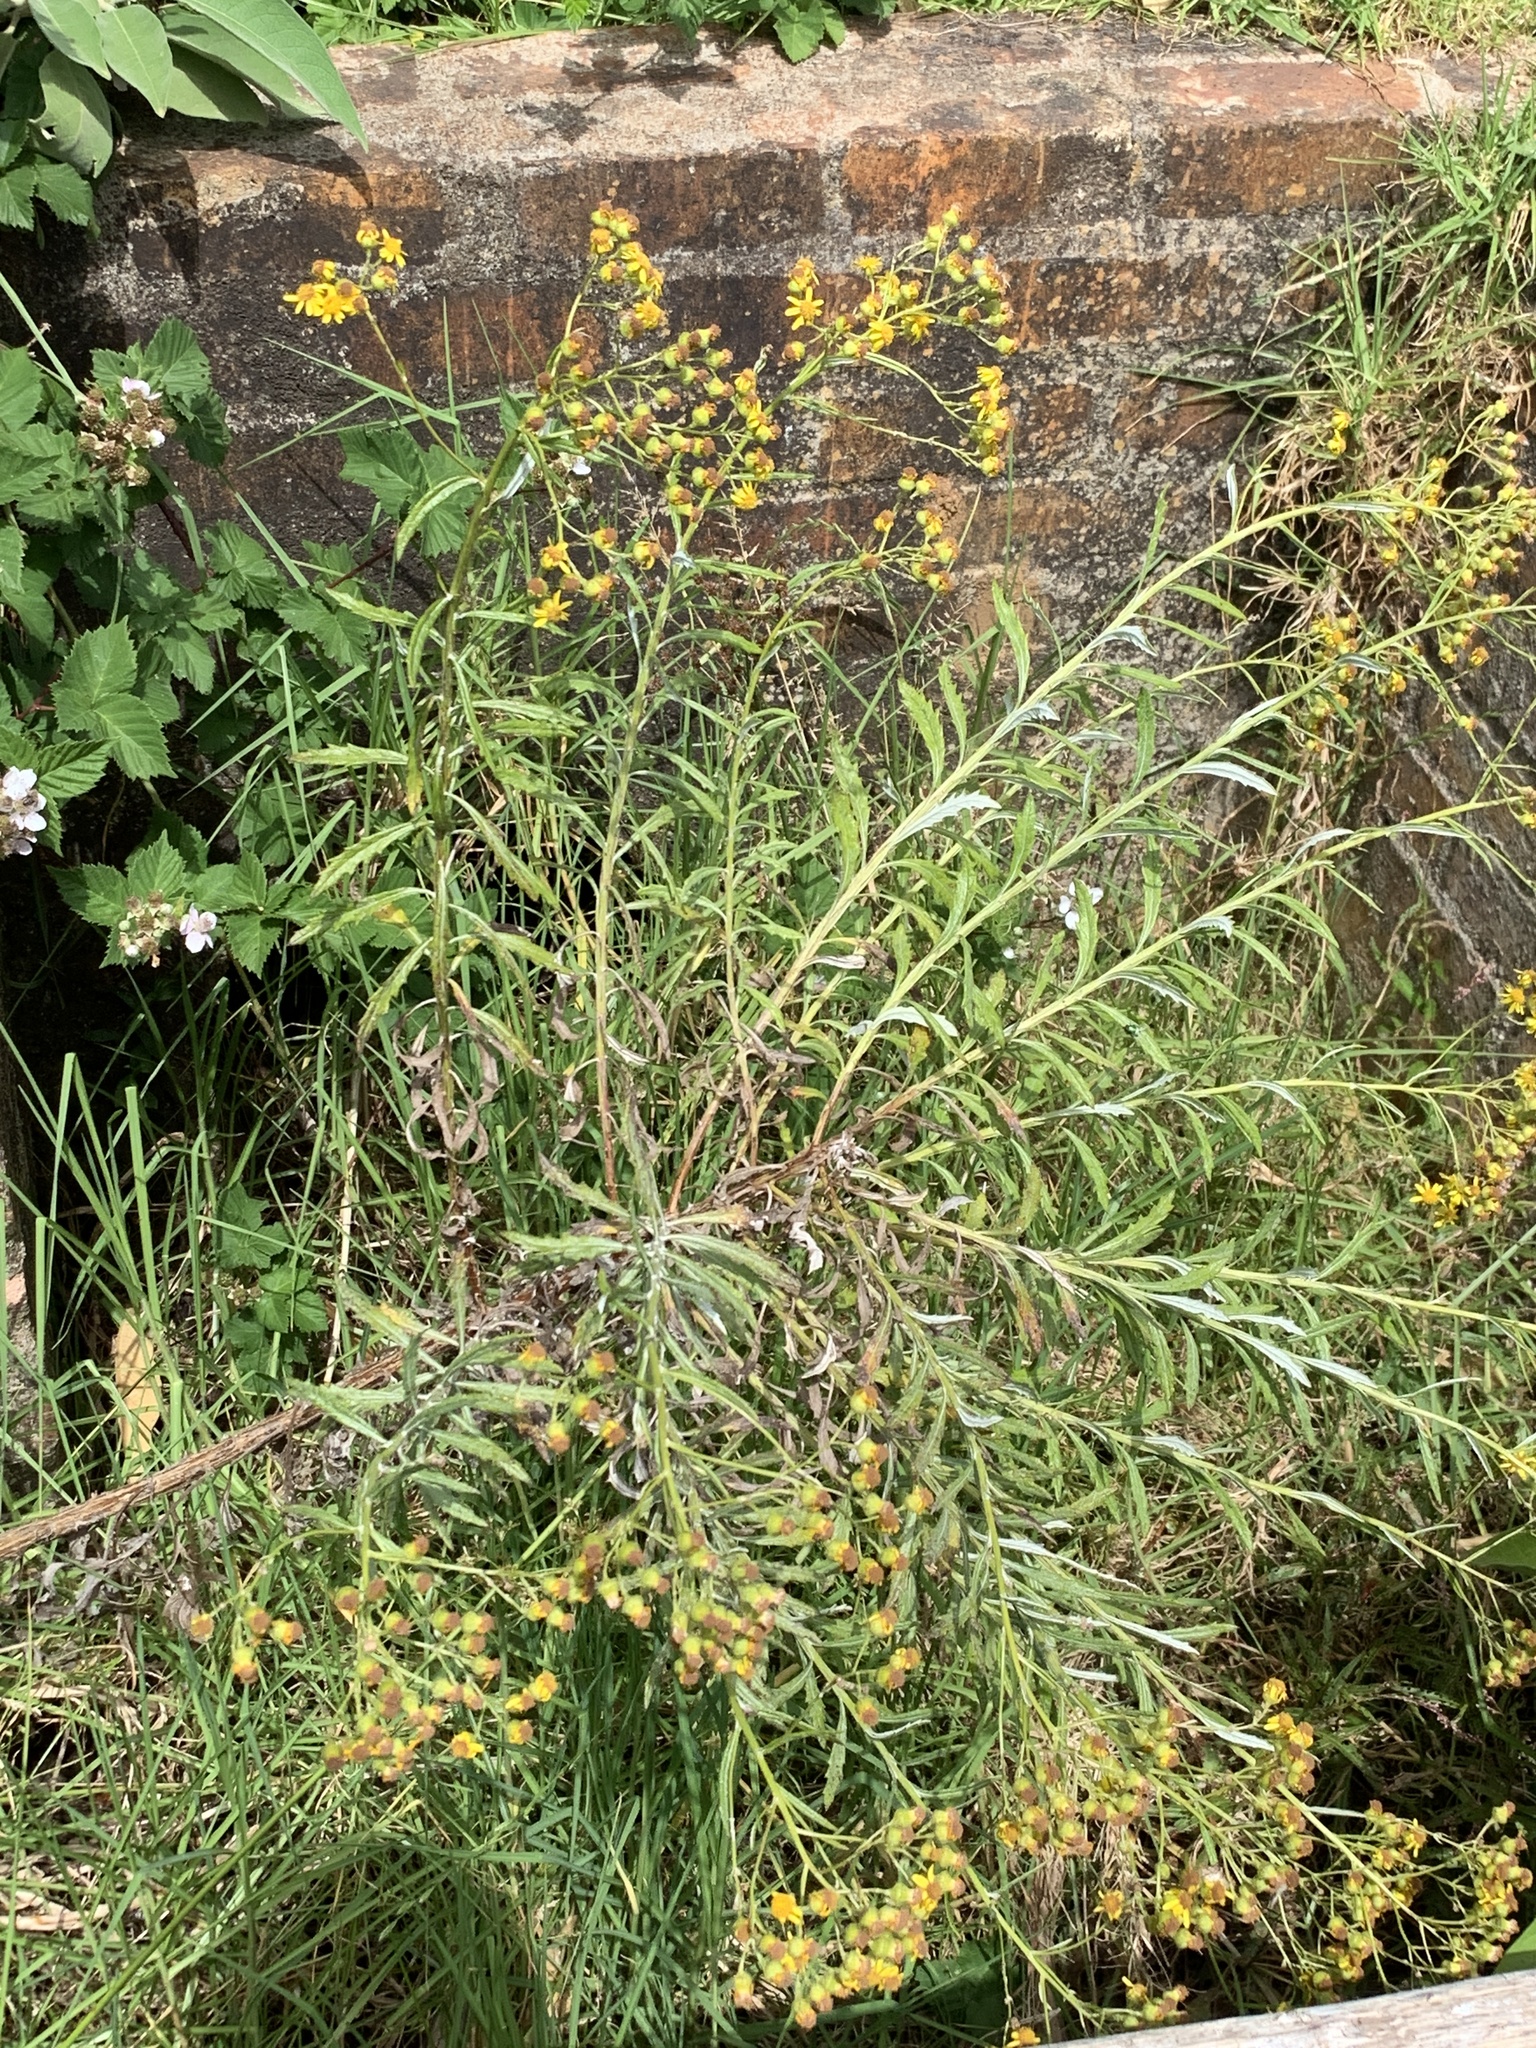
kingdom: Plantae
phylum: Tracheophyta
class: Magnoliopsida
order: Asterales
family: Asteraceae
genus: Senecio
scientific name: Senecio pterophorus
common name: Shoddy ragwort
